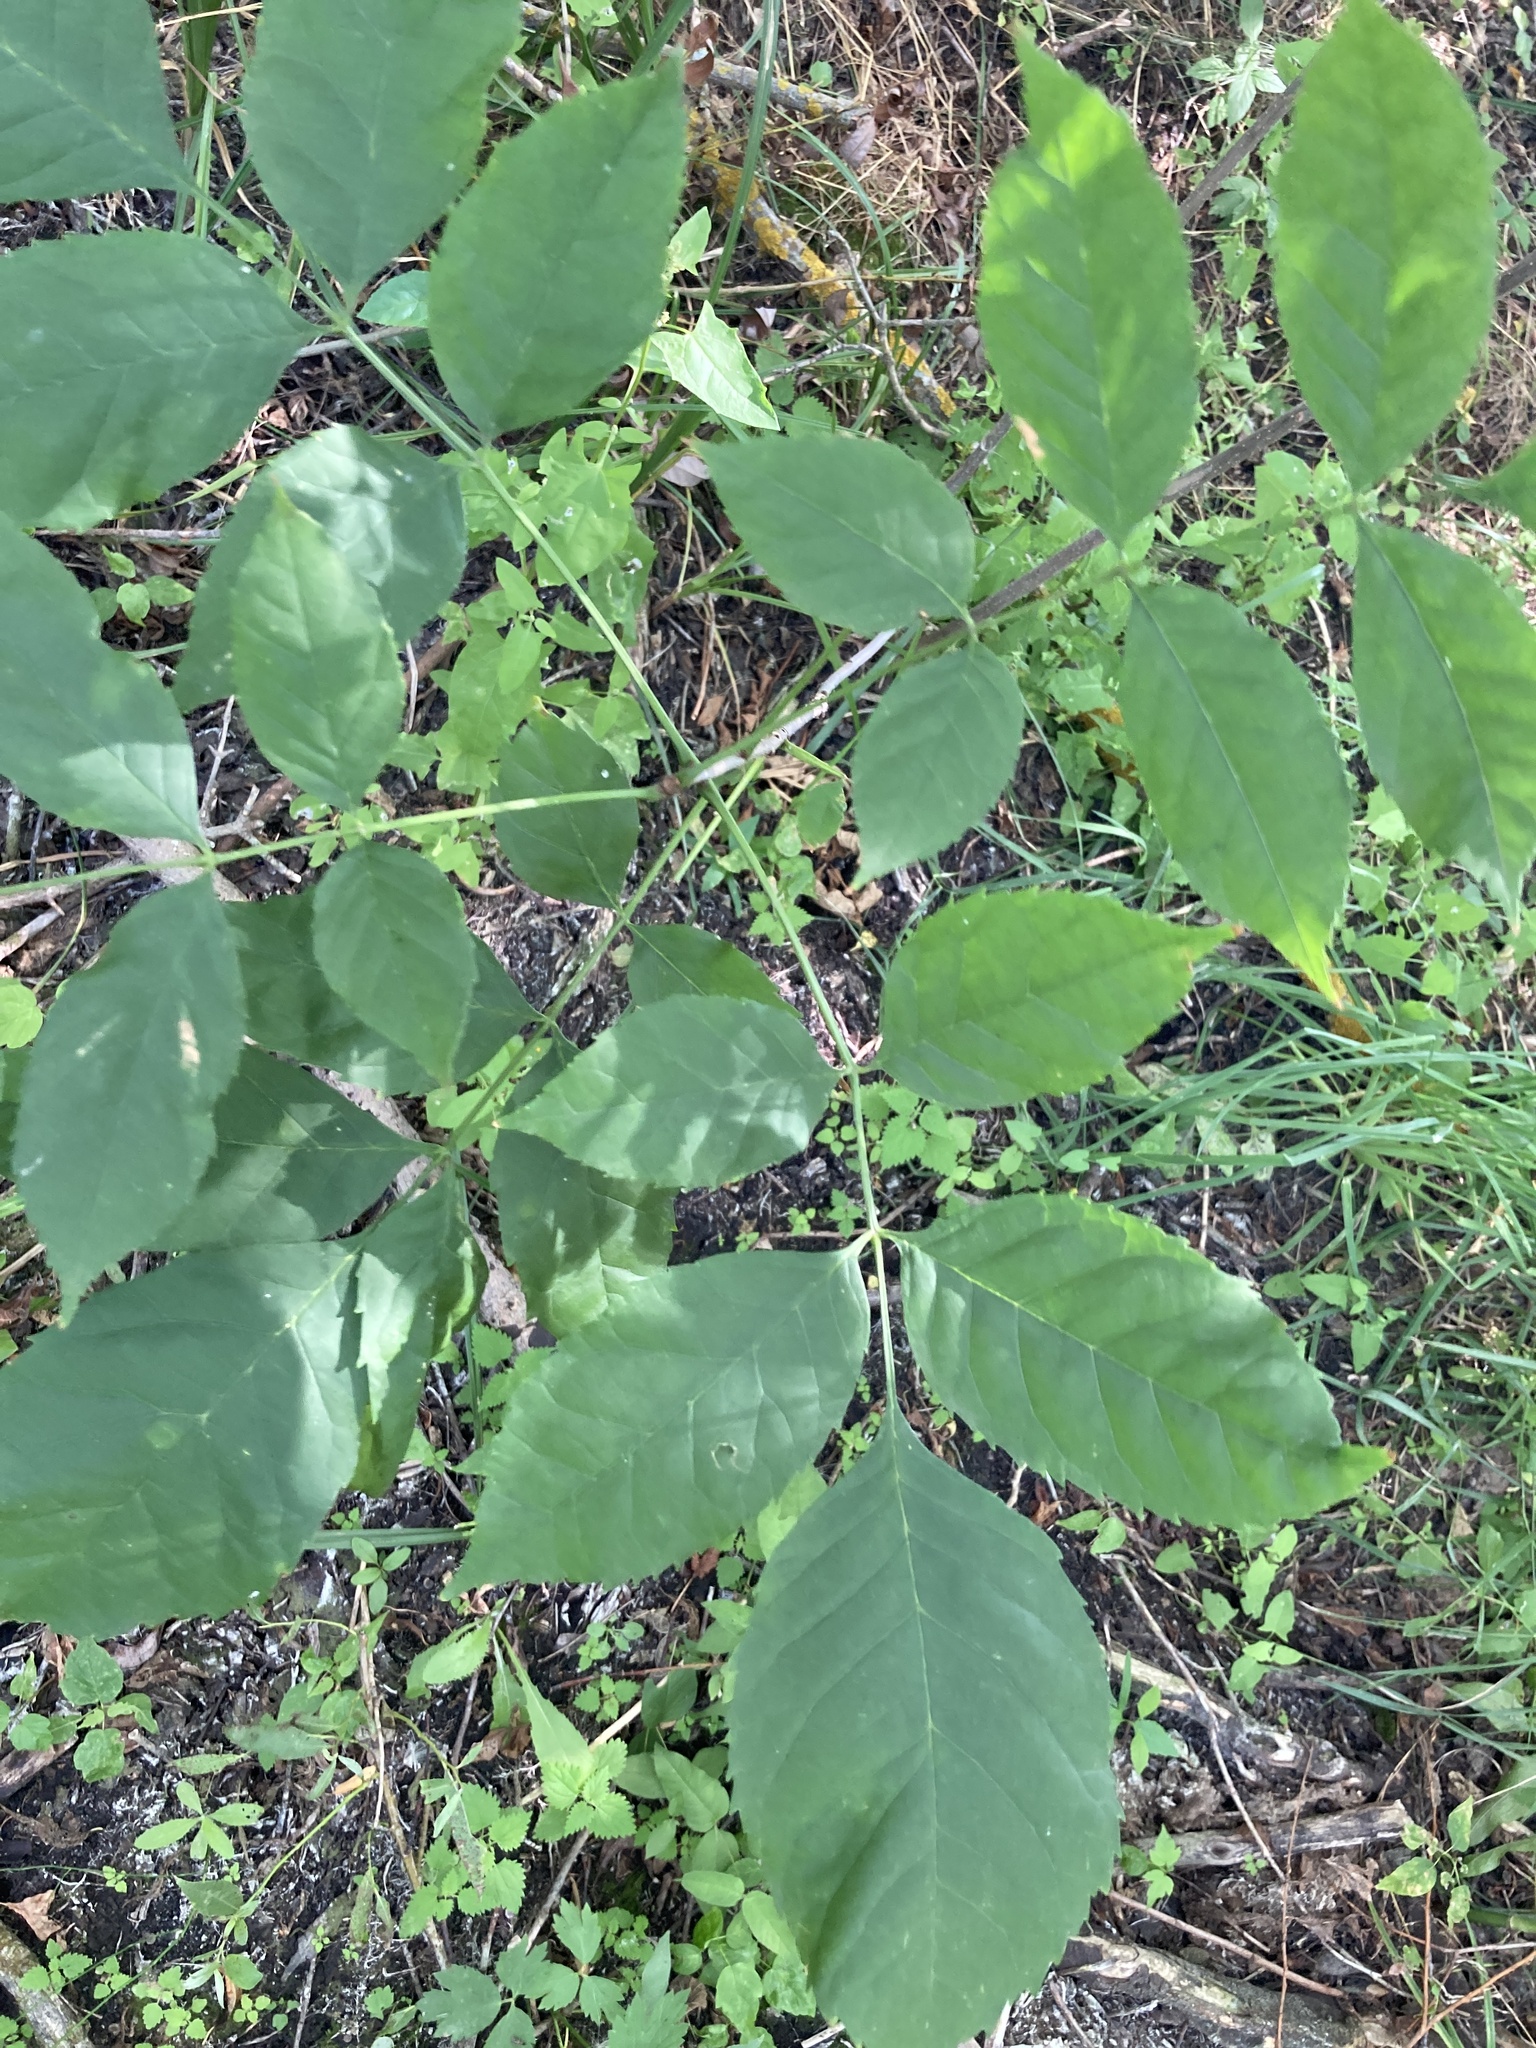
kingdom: Plantae
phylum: Tracheophyta
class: Magnoliopsida
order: Lamiales
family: Oleaceae
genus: Fraxinus
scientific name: Fraxinus pennsylvanica
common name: Green ash
